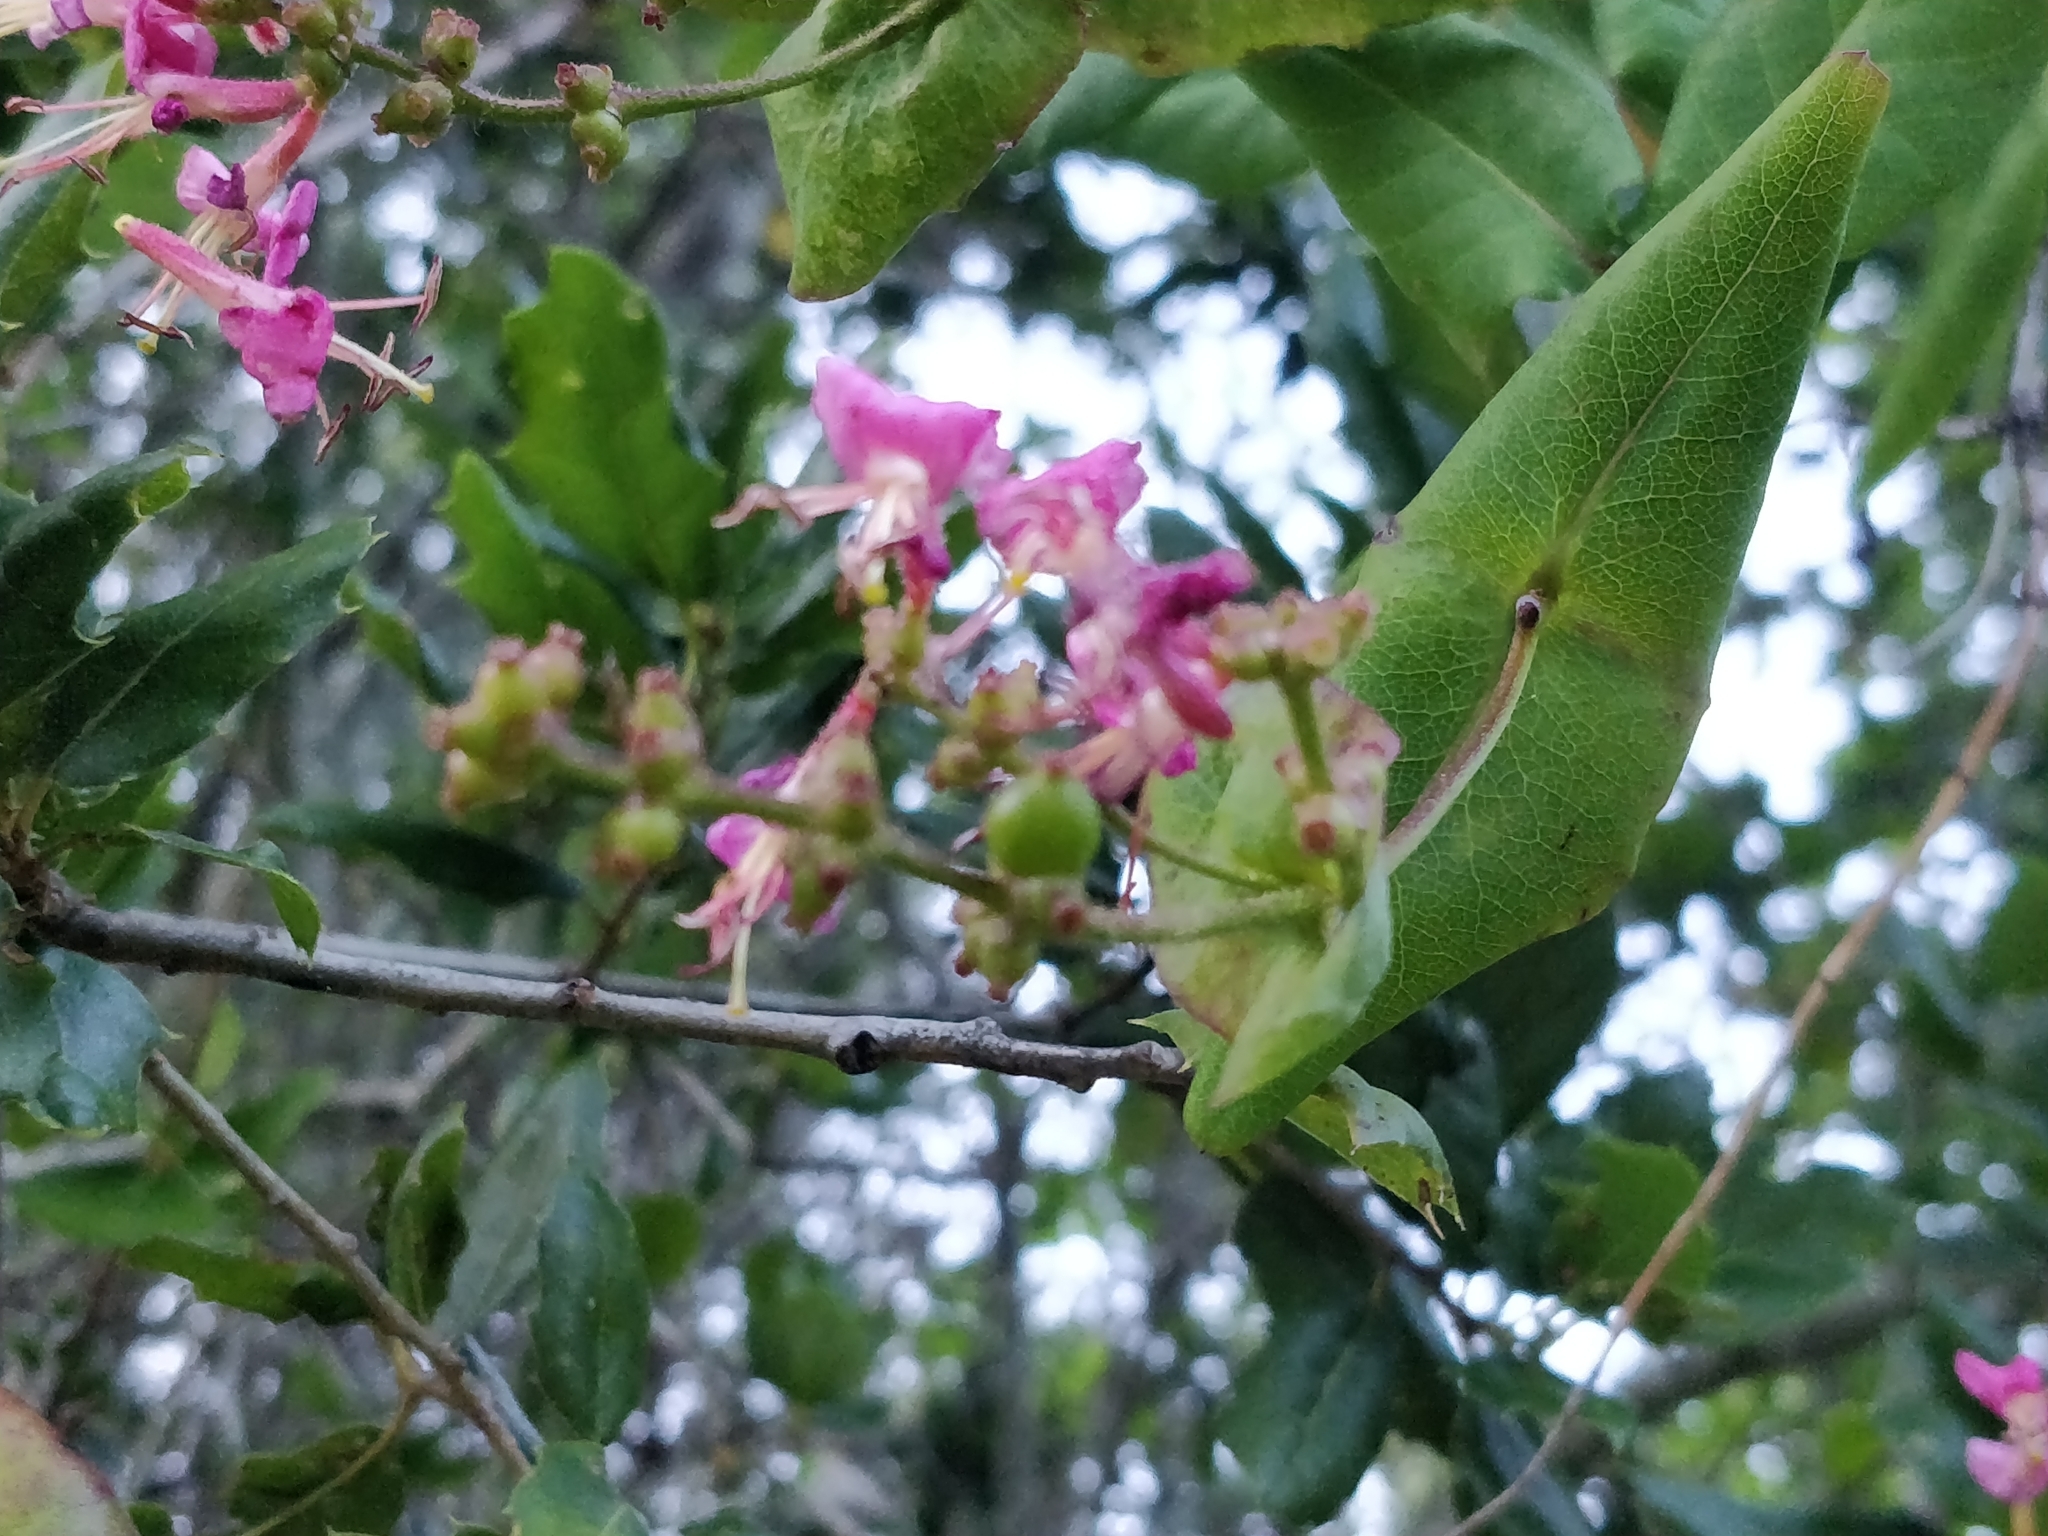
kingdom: Plantae
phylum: Tracheophyta
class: Magnoliopsida
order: Dipsacales
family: Caprifoliaceae
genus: Lonicera
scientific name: Lonicera hispidula
